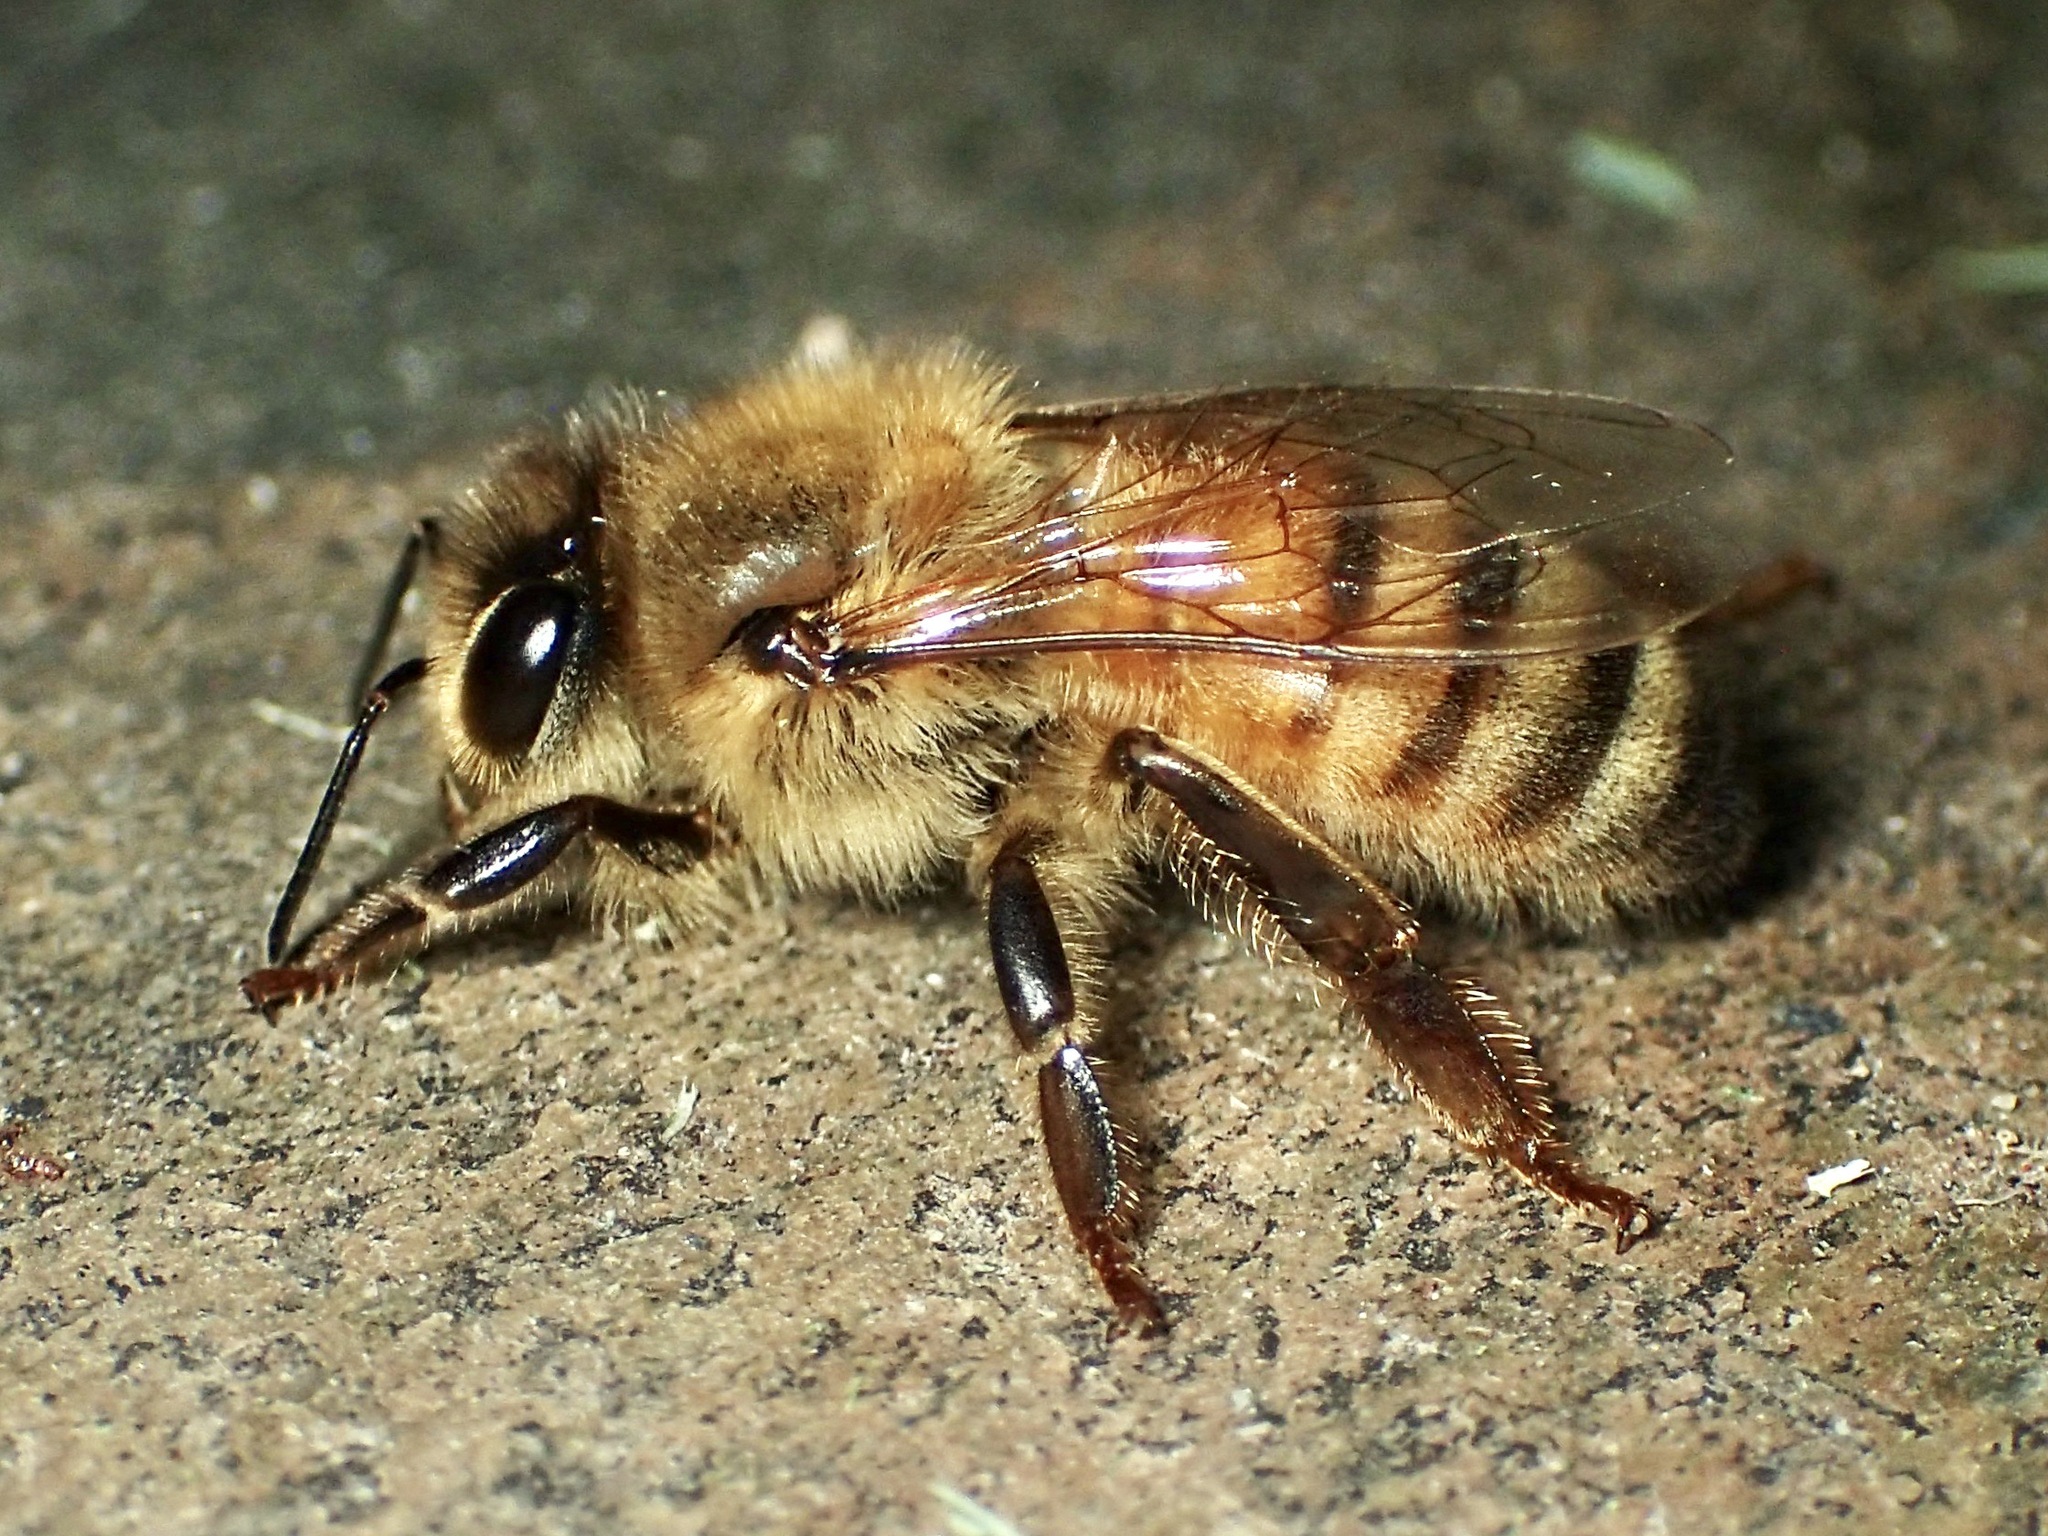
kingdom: Animalia
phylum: Arthropoda
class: Insecta
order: Hymenoptera
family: Apidae
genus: Apis
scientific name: Apis mellifera
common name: Honey bee
